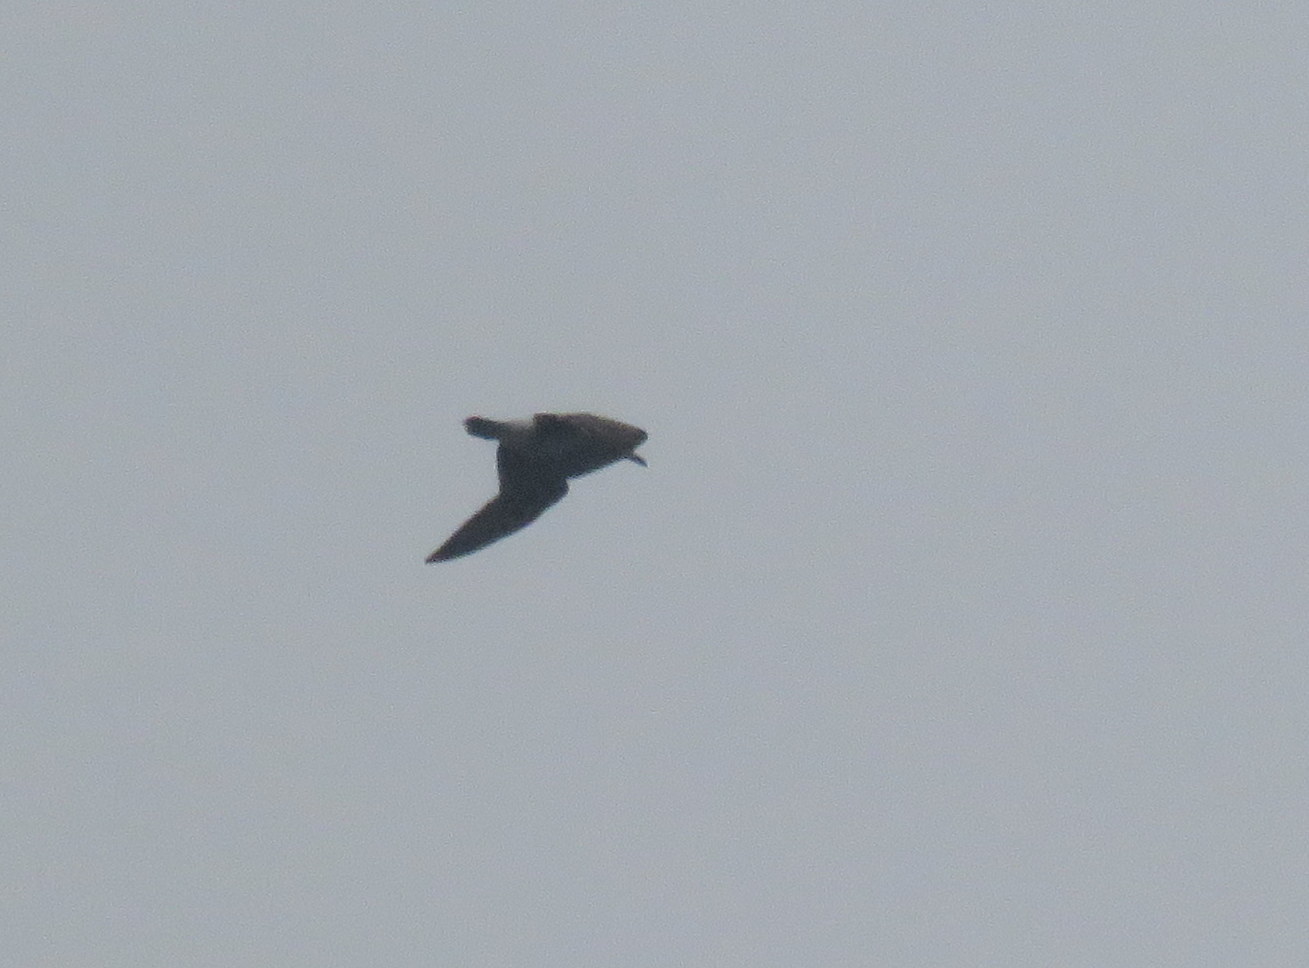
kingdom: Animalia
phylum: Chordata
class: Aves
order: Charadriiformes
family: Laridae
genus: Larus
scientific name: Larus dominicanus
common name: Kelp gull
